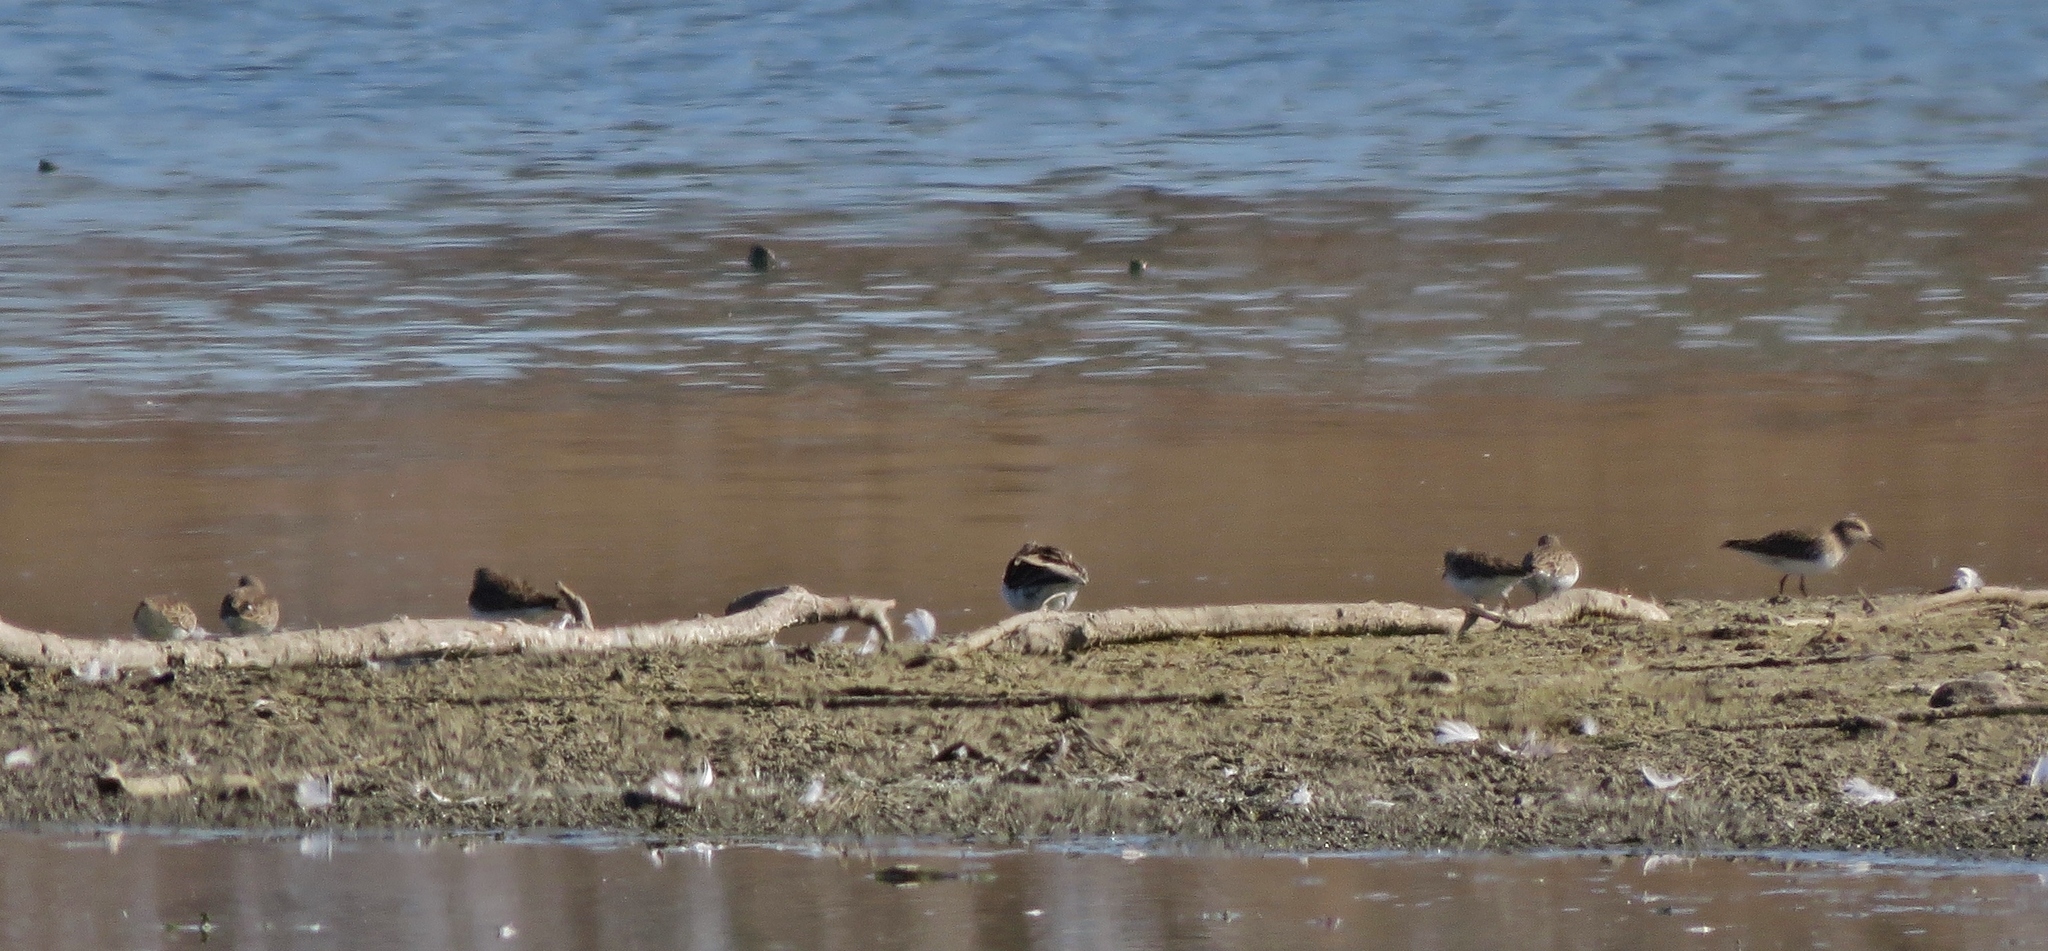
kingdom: Animalia
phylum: Chordata
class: Aves
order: Charadriiformes
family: Scolopacidae
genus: Calidris
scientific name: Calidris minutilla
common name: Least sandpiper
